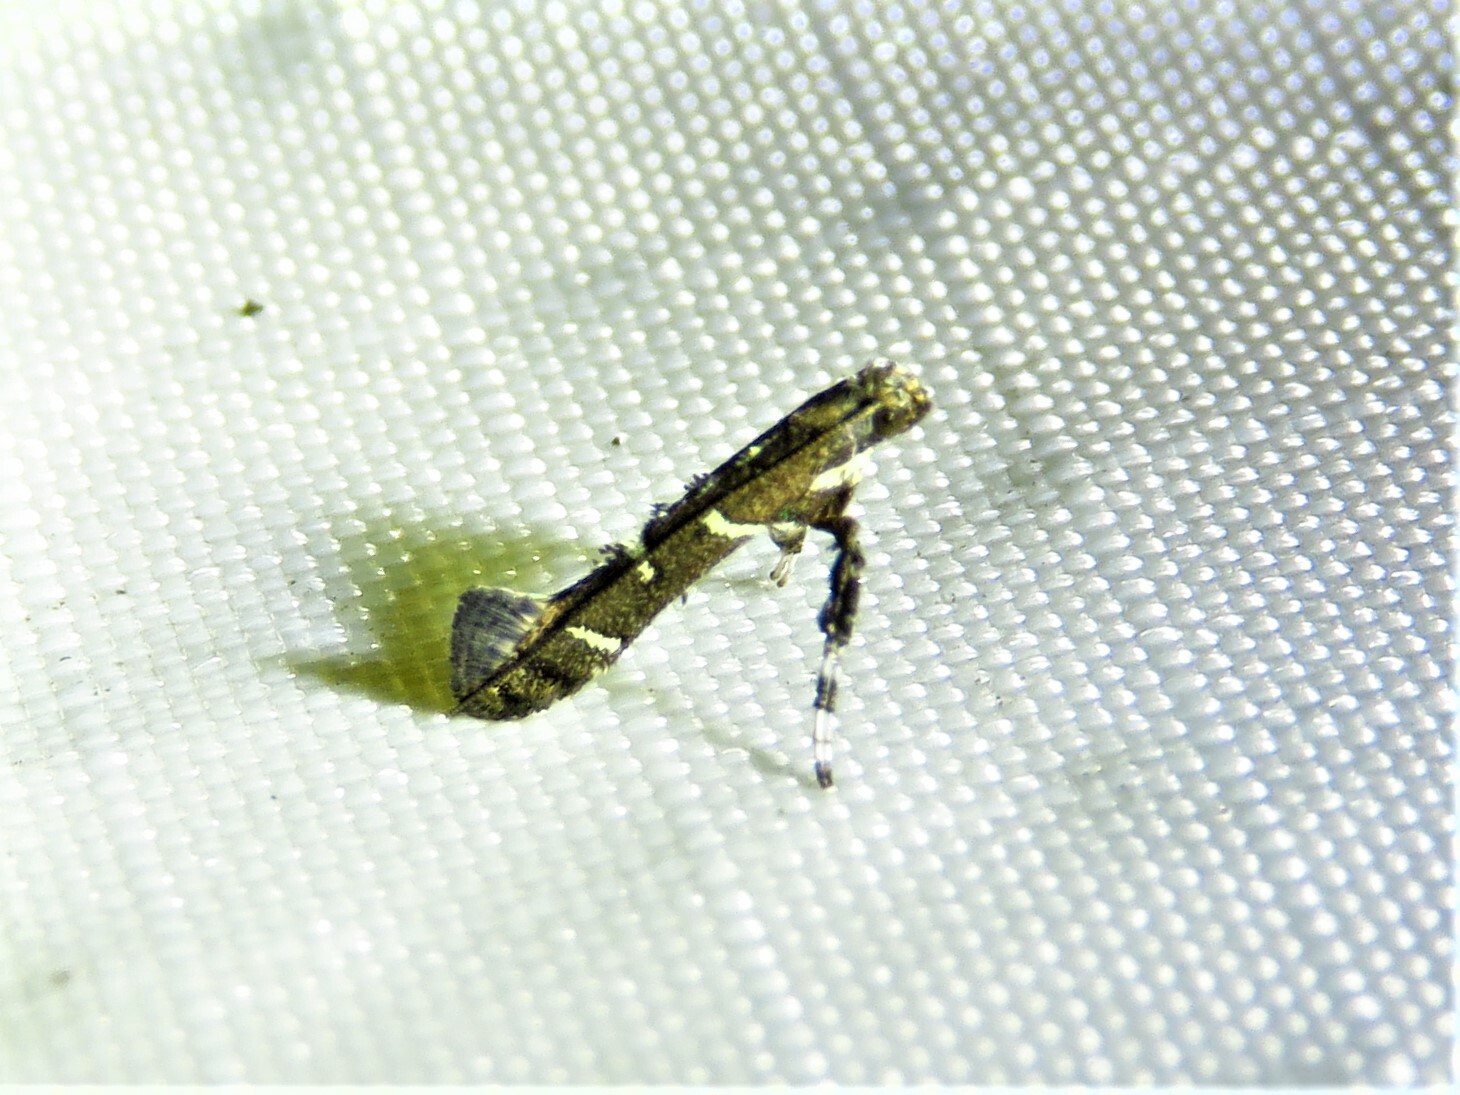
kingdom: Animalia
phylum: Arthropoda
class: Insecta
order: Lepidoptera
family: Gracillariidae
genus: Caloptilia
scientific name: Caloptilia triadicae
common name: Tallow leaf roller
